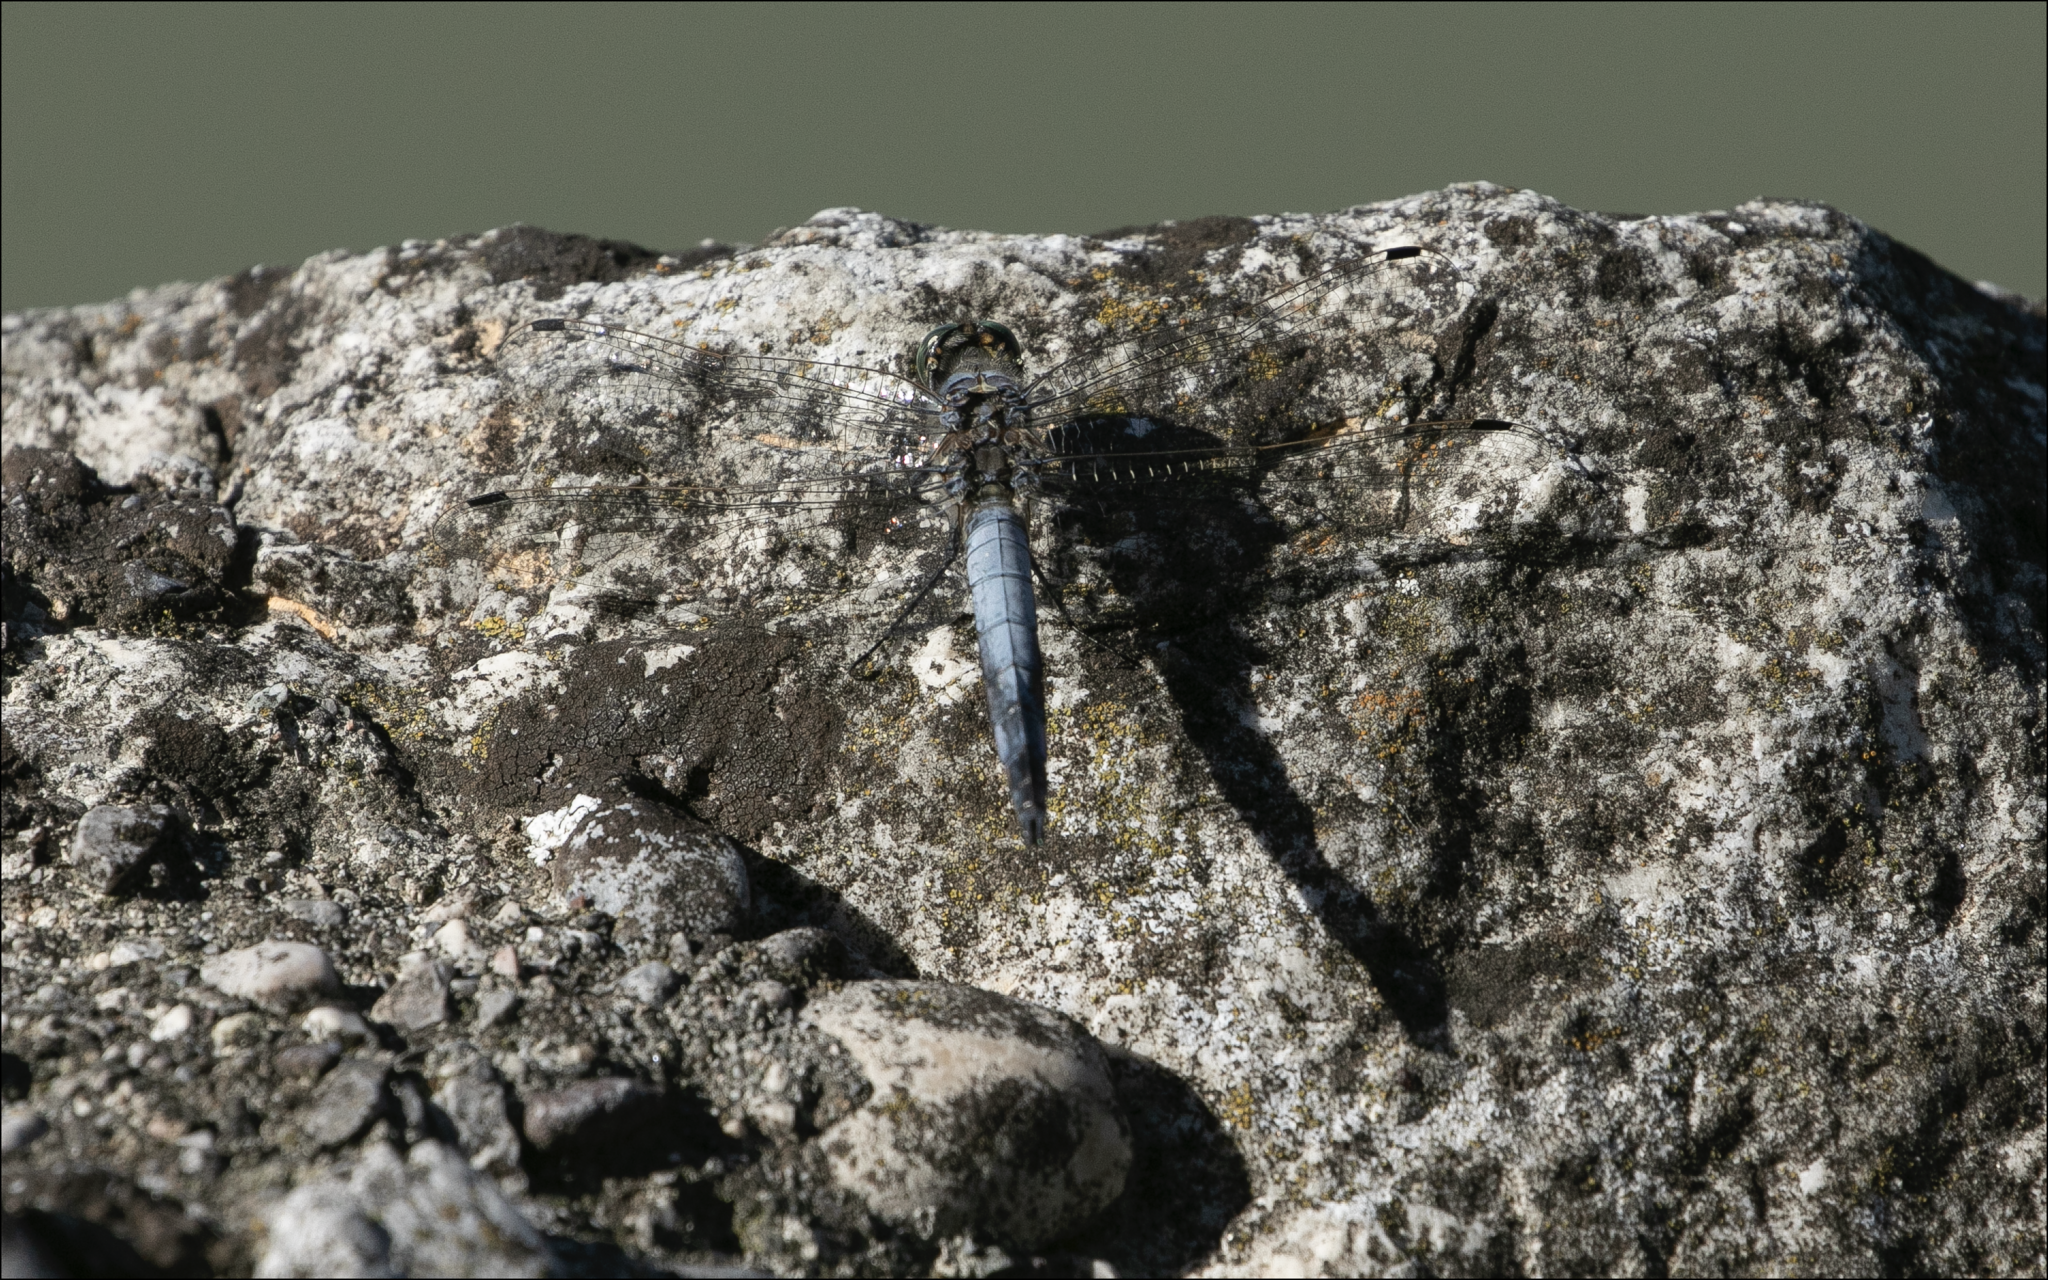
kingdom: Animalia
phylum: Arthropoda
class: Insecta
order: Odonata
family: Libellulidae
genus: Orthetrum
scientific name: Orthetrum cancellatum
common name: Black-tailed skimmer
